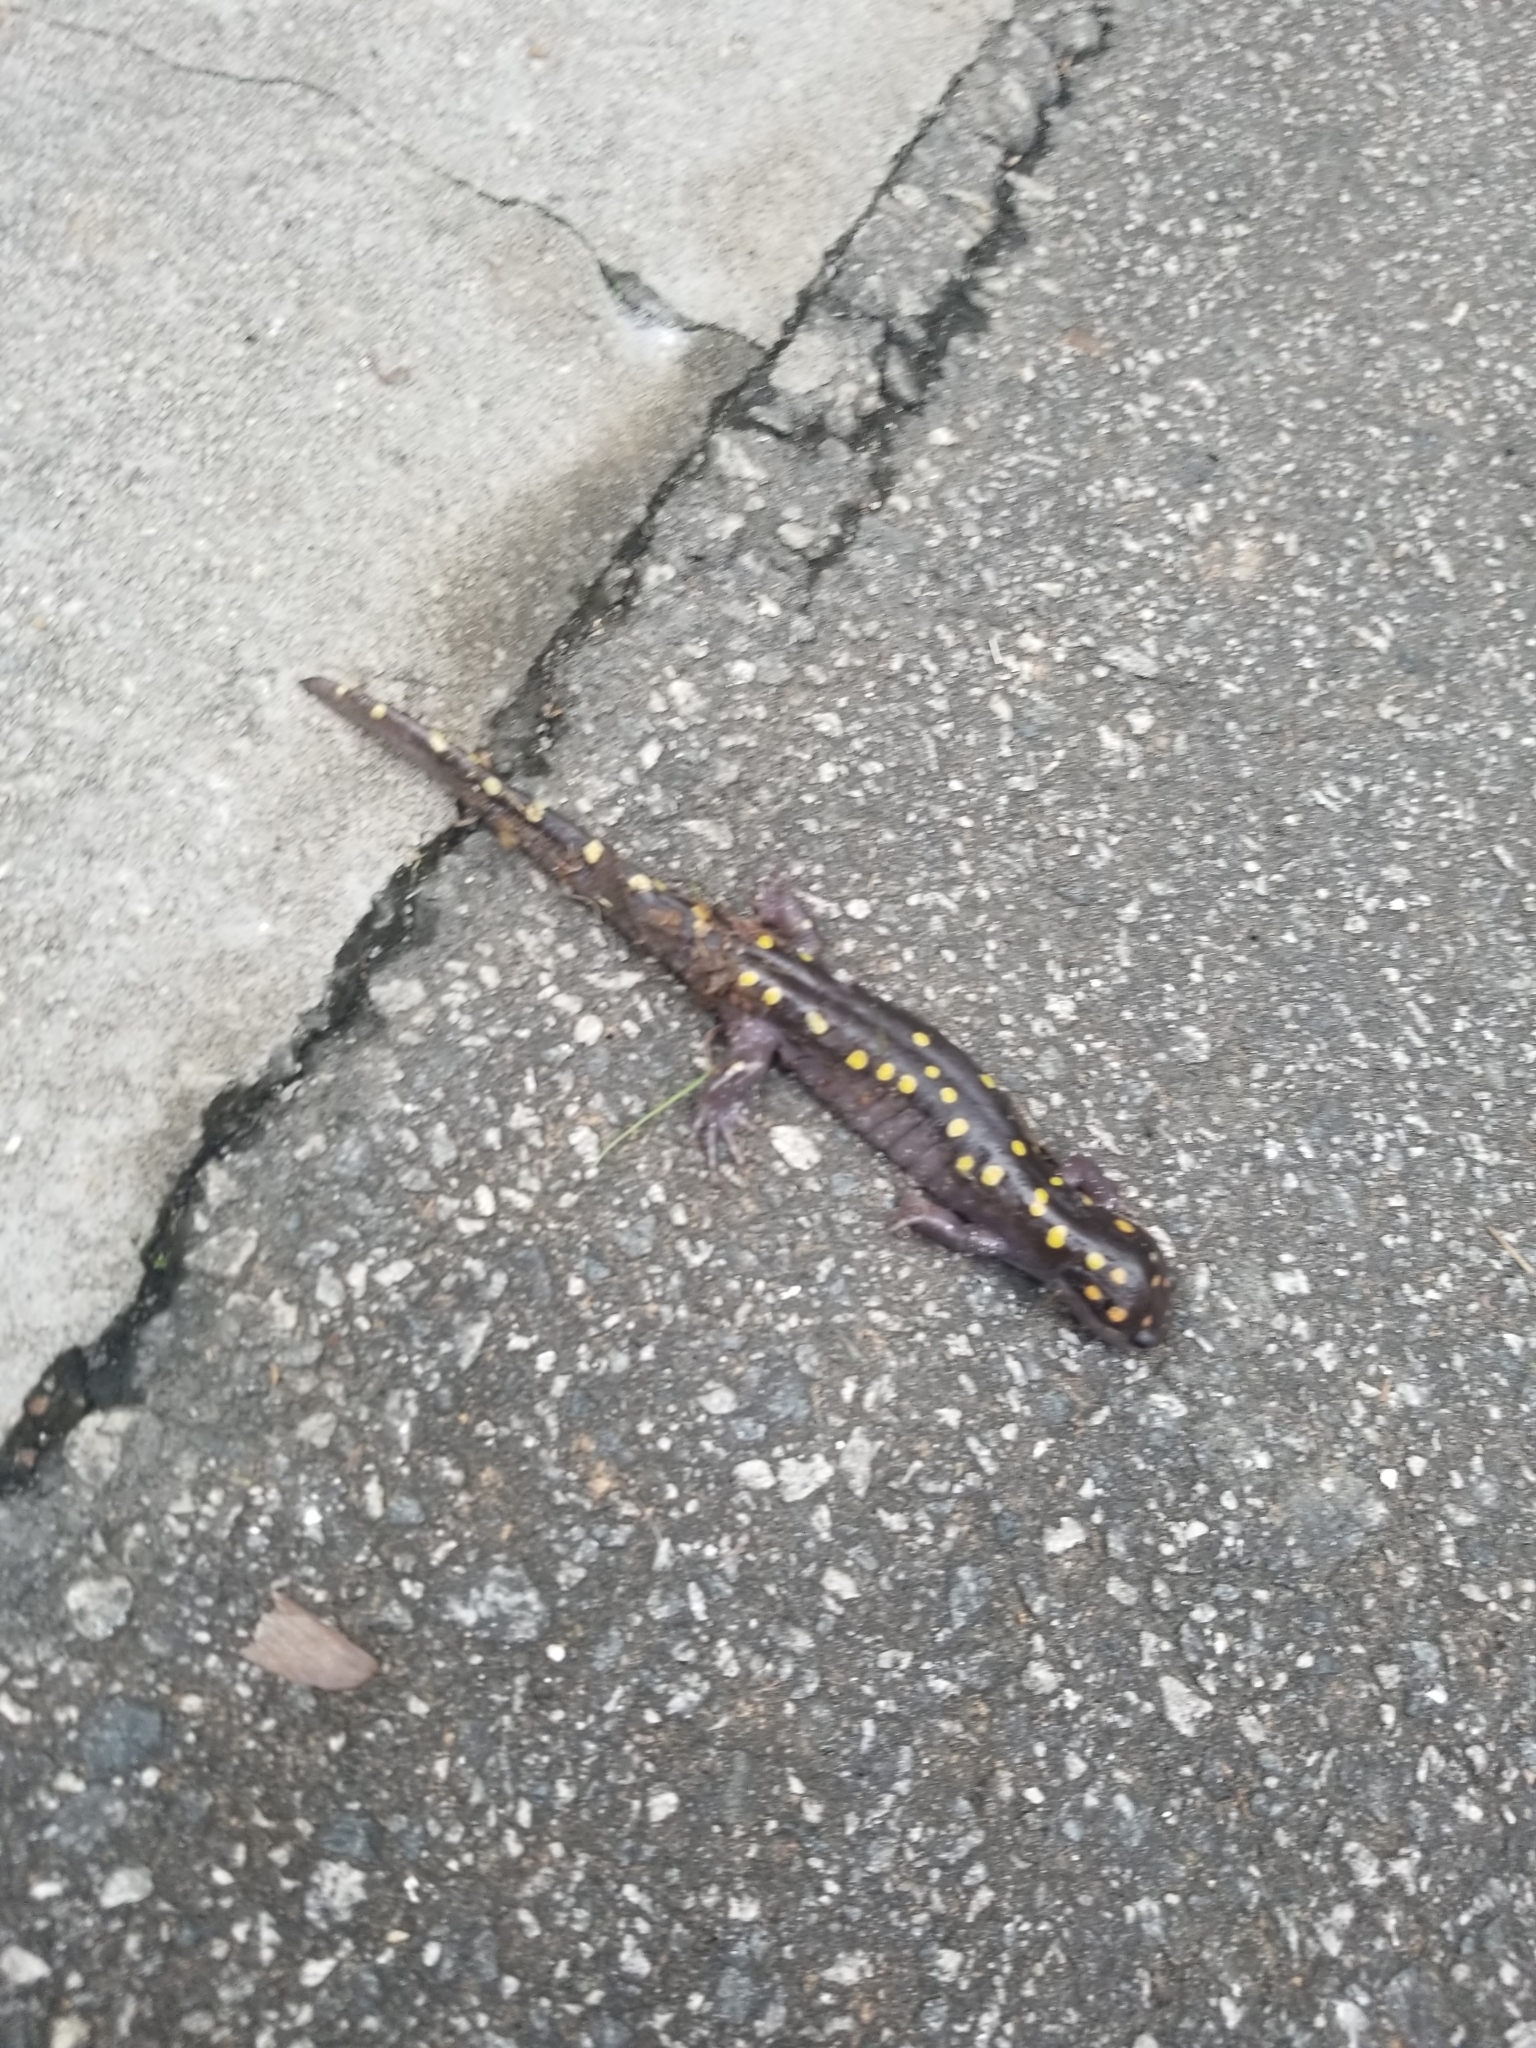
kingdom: Animalia
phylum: Chordata
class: Amphibia
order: Caudata
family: Ambystomatidae
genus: Ambystoma
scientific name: Ambystoma maculatum
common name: Spotted salamander
